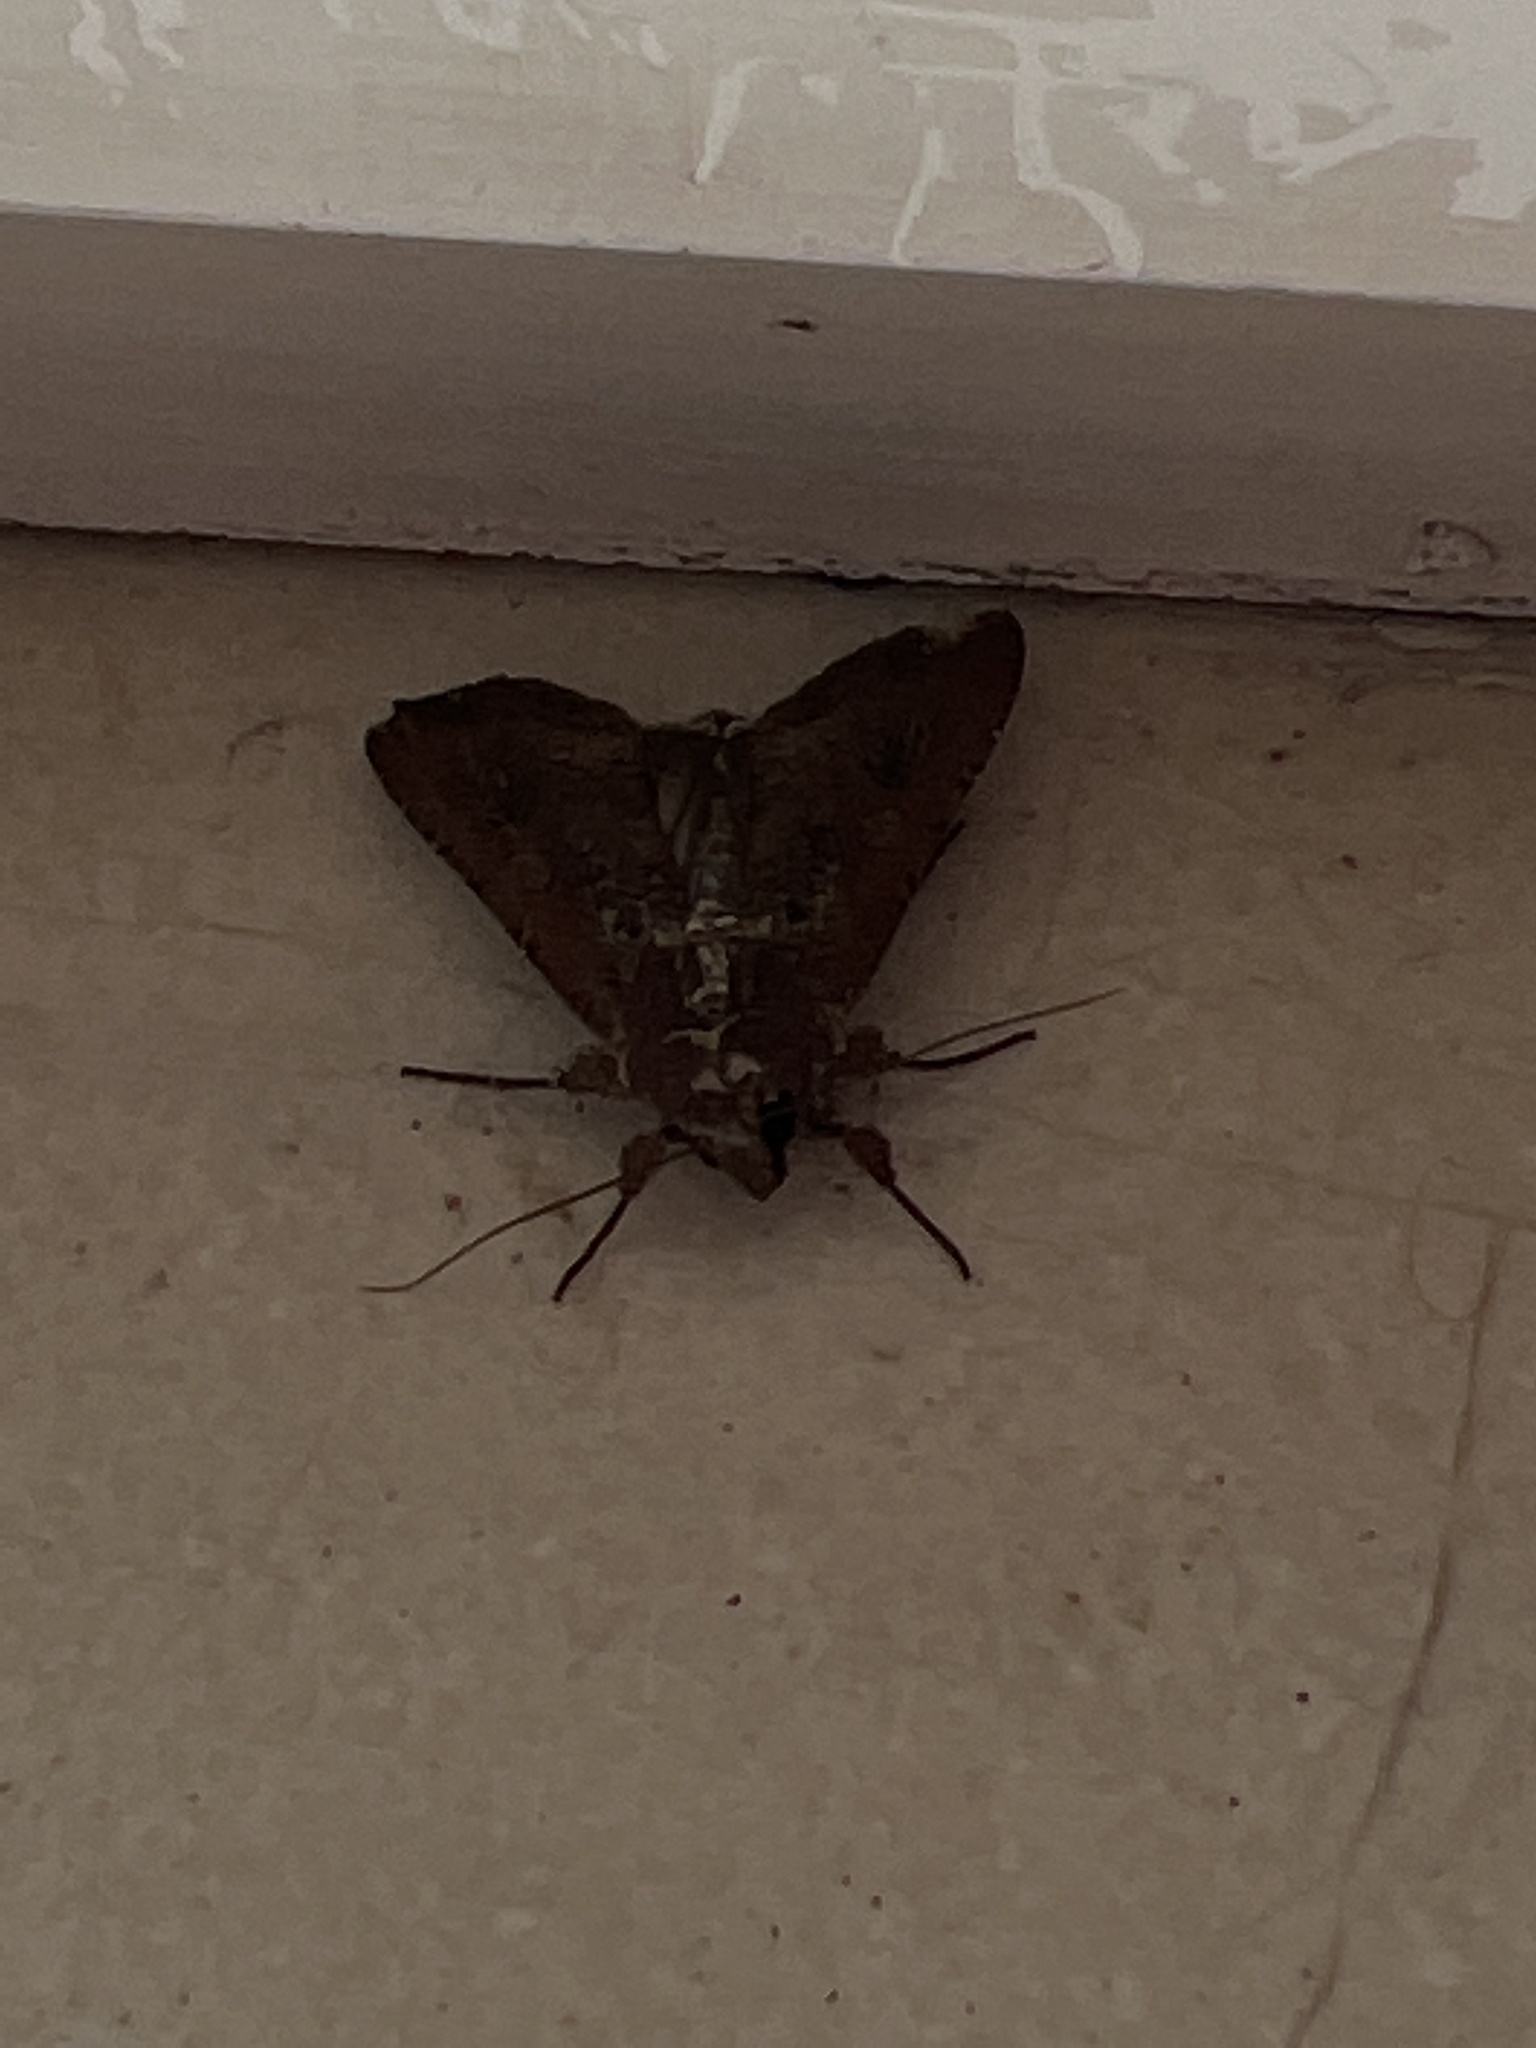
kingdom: Animalia
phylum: Arthropoda
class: Insecta
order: Lepidoptera
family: Noctuidae
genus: Peridroma
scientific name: Peridroma saucia
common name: Pearly underwing
